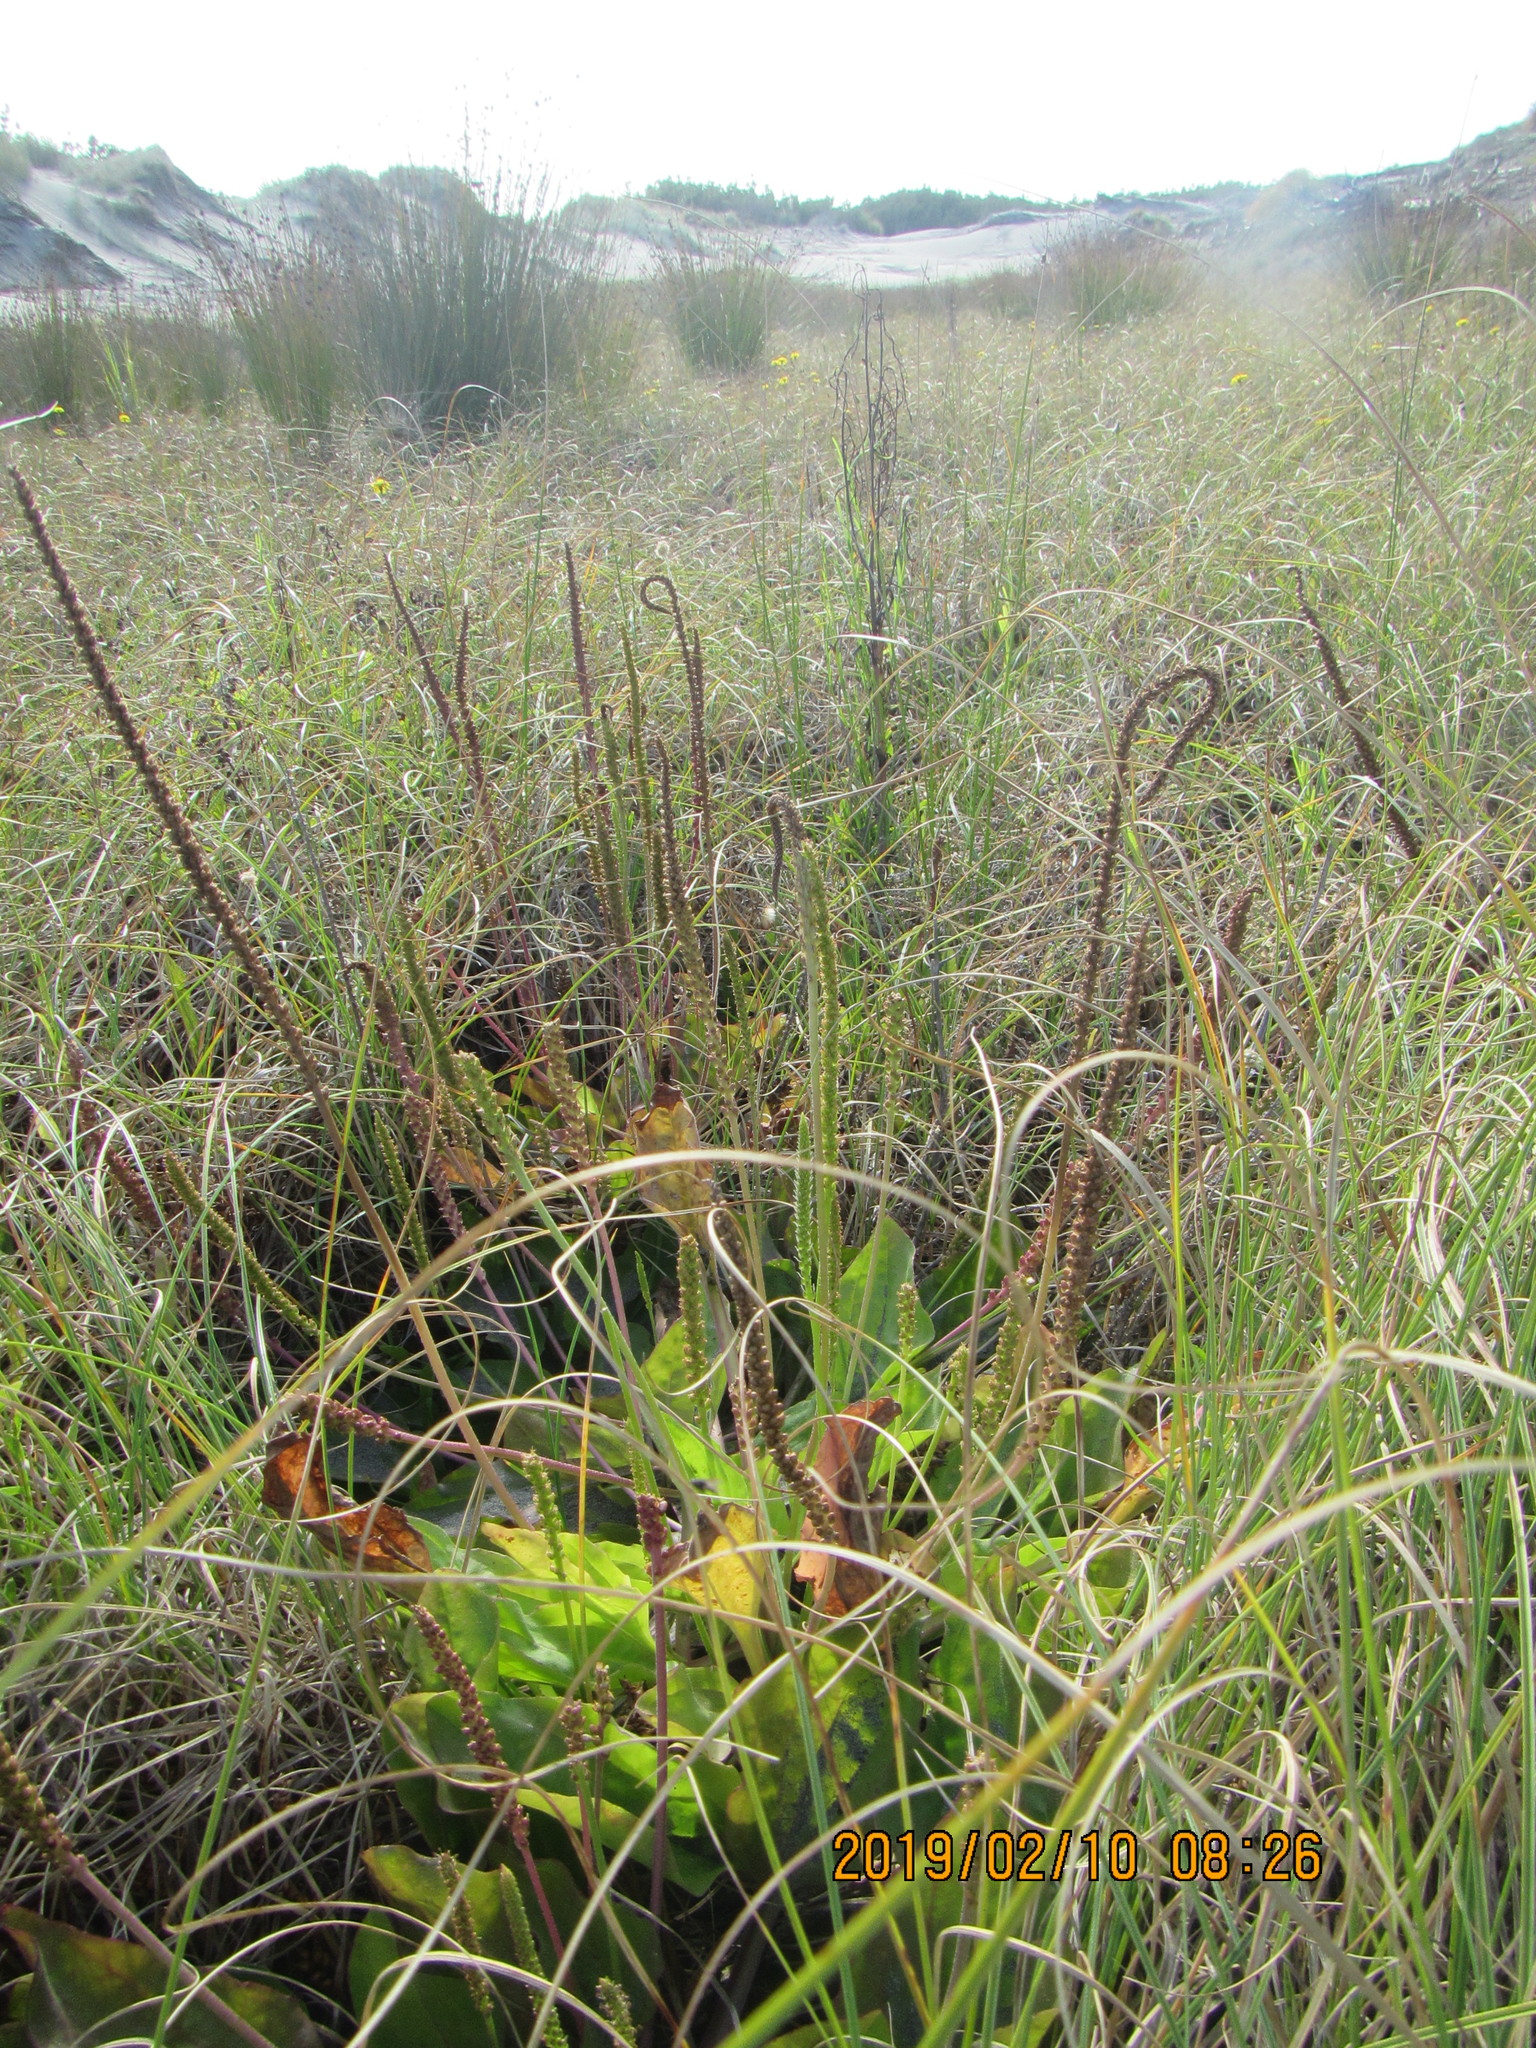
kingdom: Plantae
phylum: Tracheophyta
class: Magnoliopsida
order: Lamiales
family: Plantaginaceae
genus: Plantago
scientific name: Plantago major
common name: Common plantain
